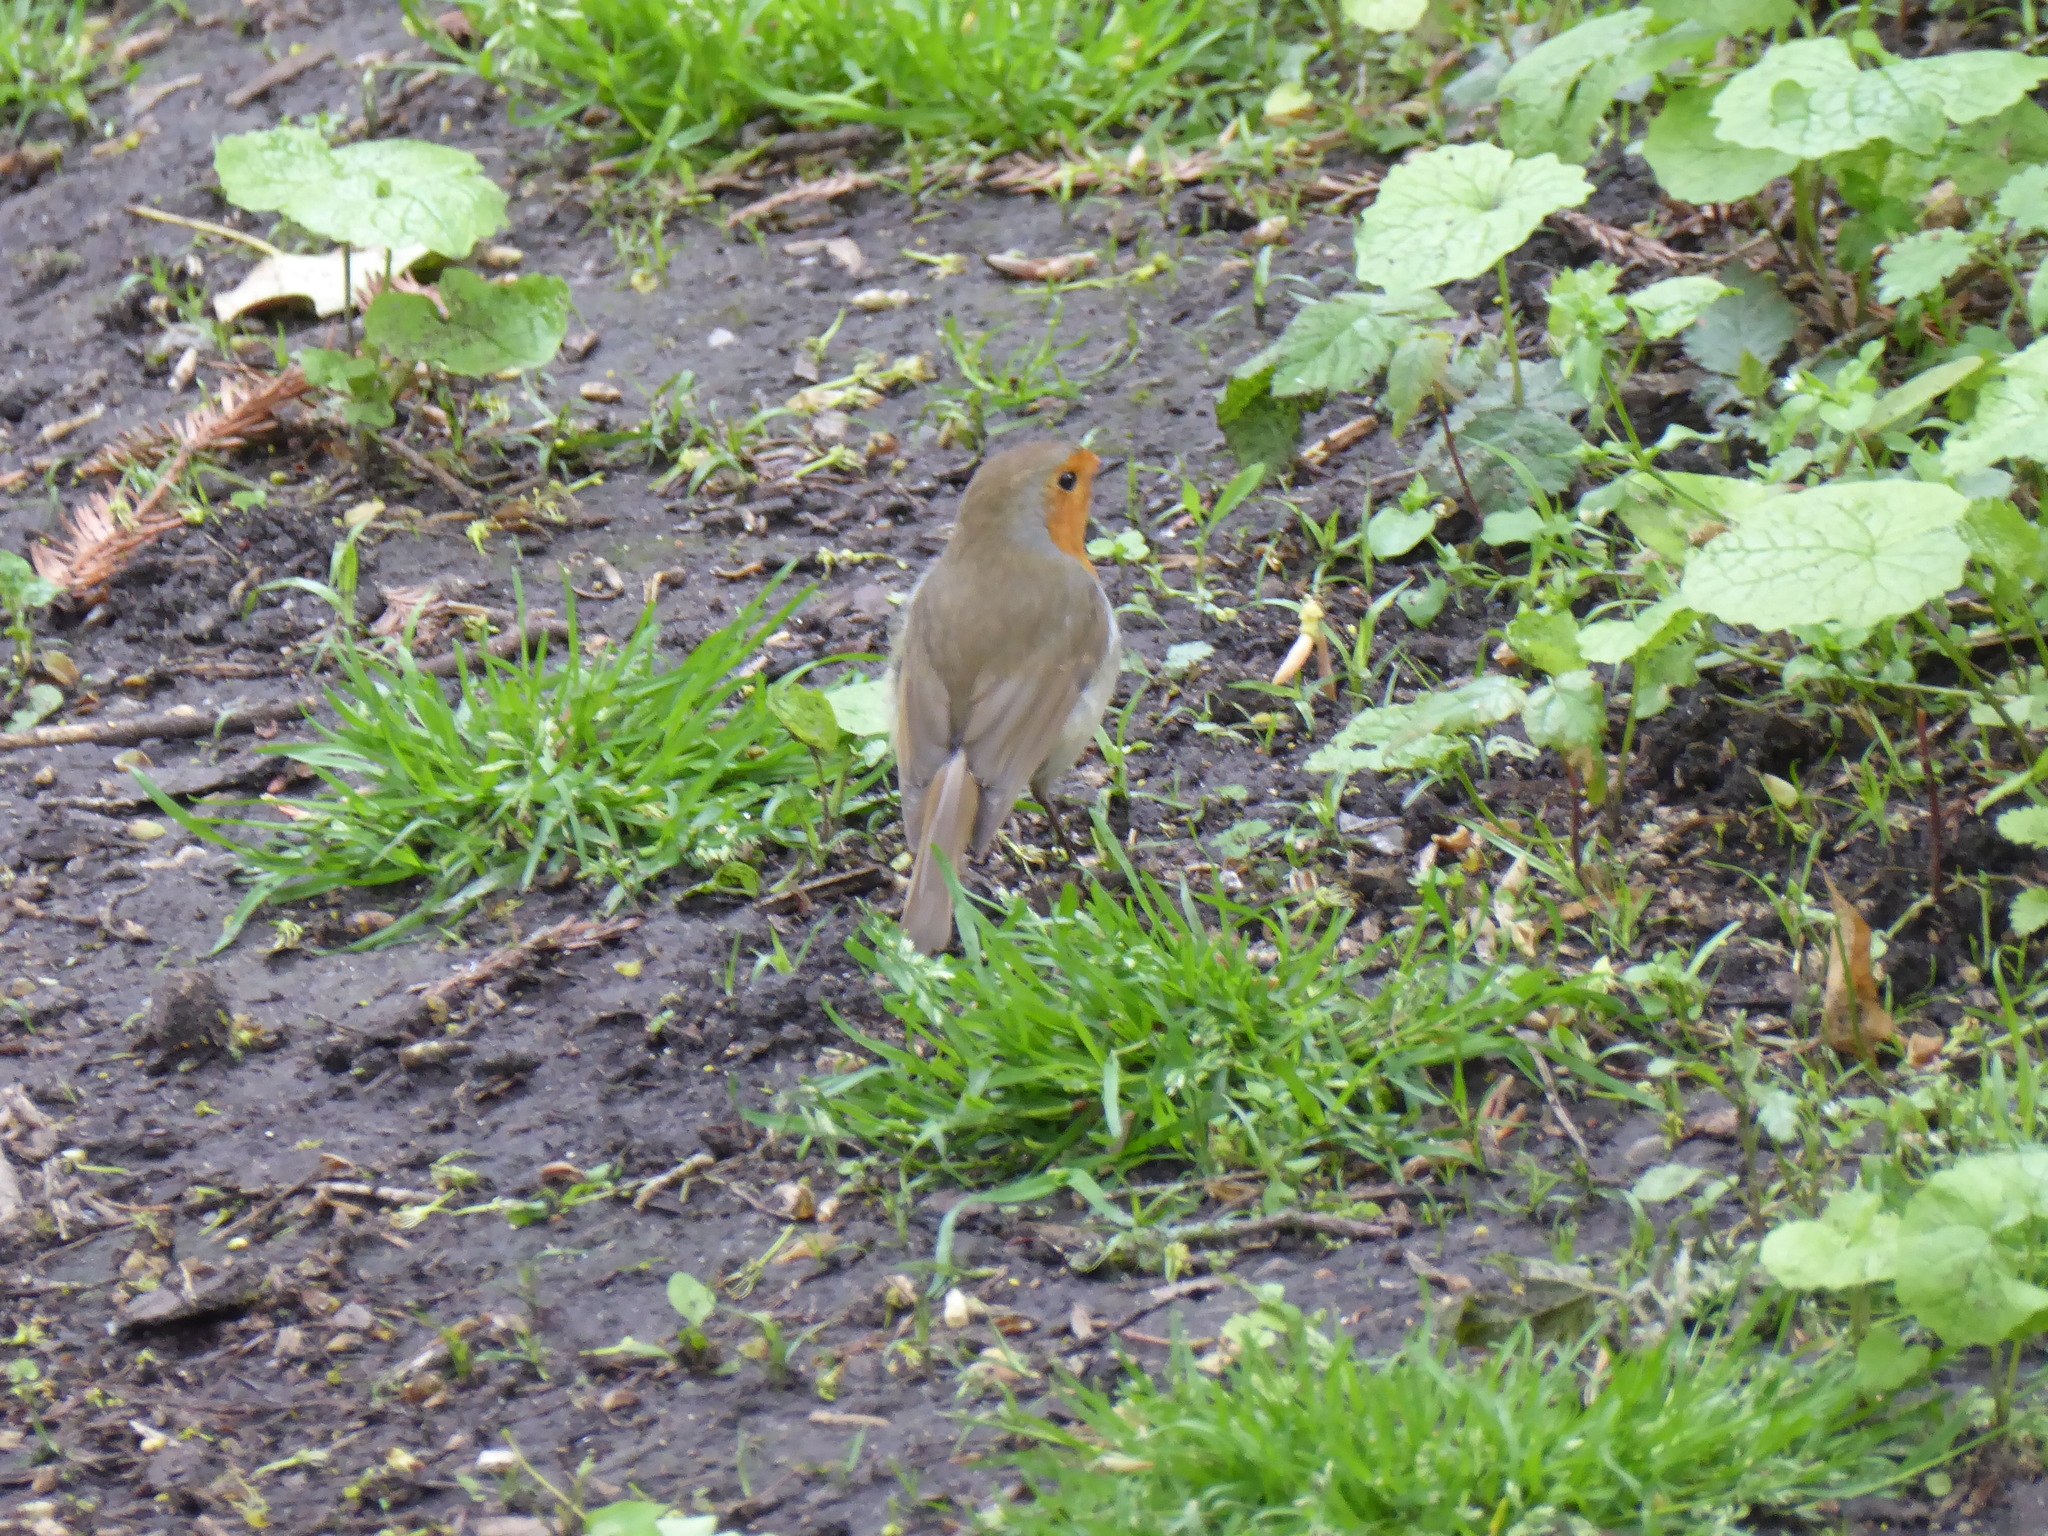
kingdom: Animalia
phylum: Chordata
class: Aves
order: Passeriformes
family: Muscicapidae
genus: Erithacus
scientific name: Erithacus rubecula
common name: European robin
